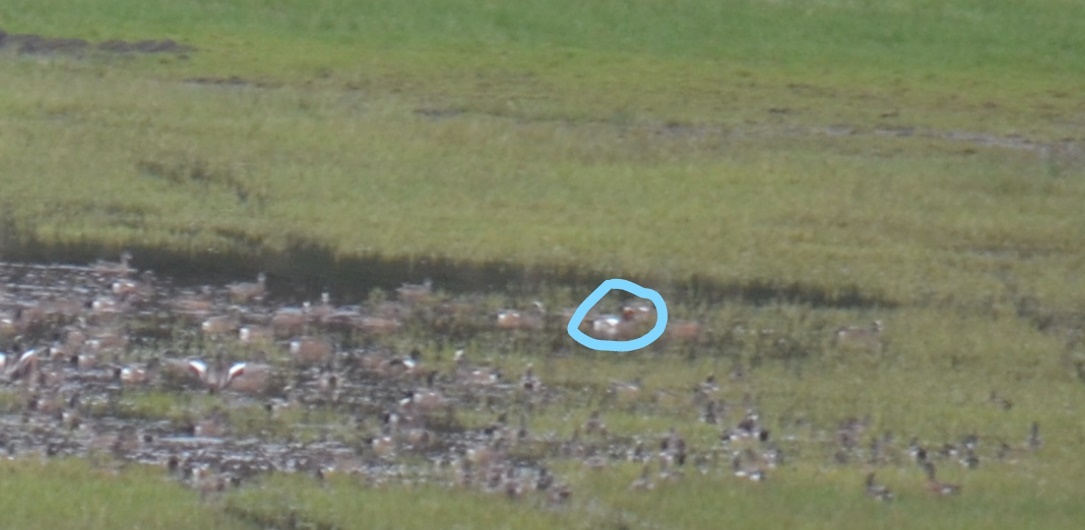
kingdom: Animalia
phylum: Chordata
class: Aves
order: Anseriformes
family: Anatidae
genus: Mareca
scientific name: Mareca penelope
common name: Eurasian wigeon
